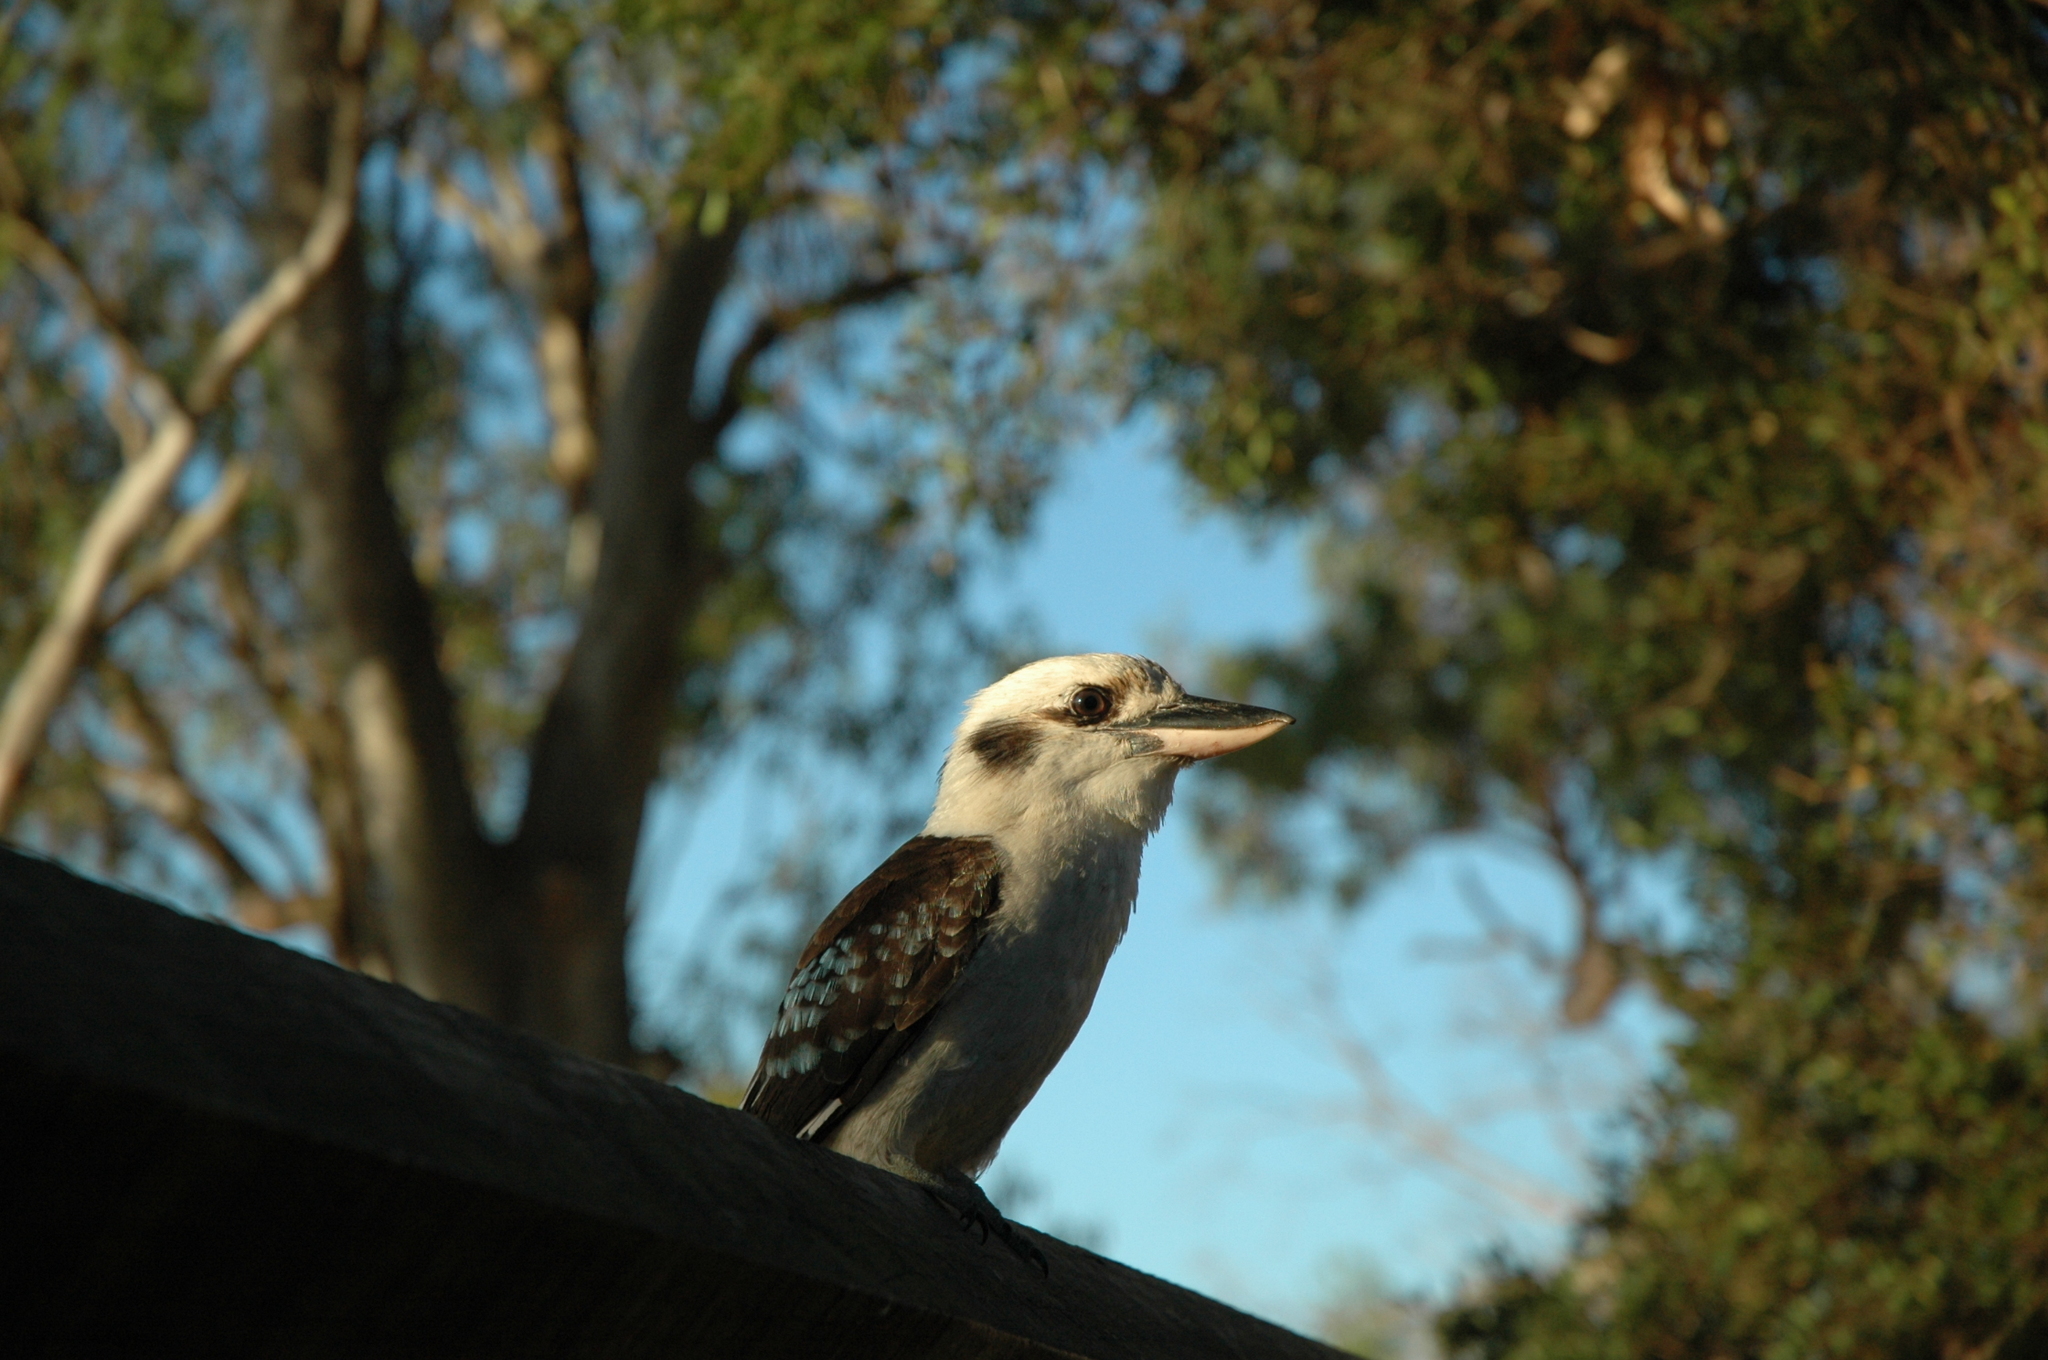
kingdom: Animalia
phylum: Chordata
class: Aves
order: Coraciiformes
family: Alcedinidae
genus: Dacelo
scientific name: Dacelo novaeguineae
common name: Laughing kookaburra
